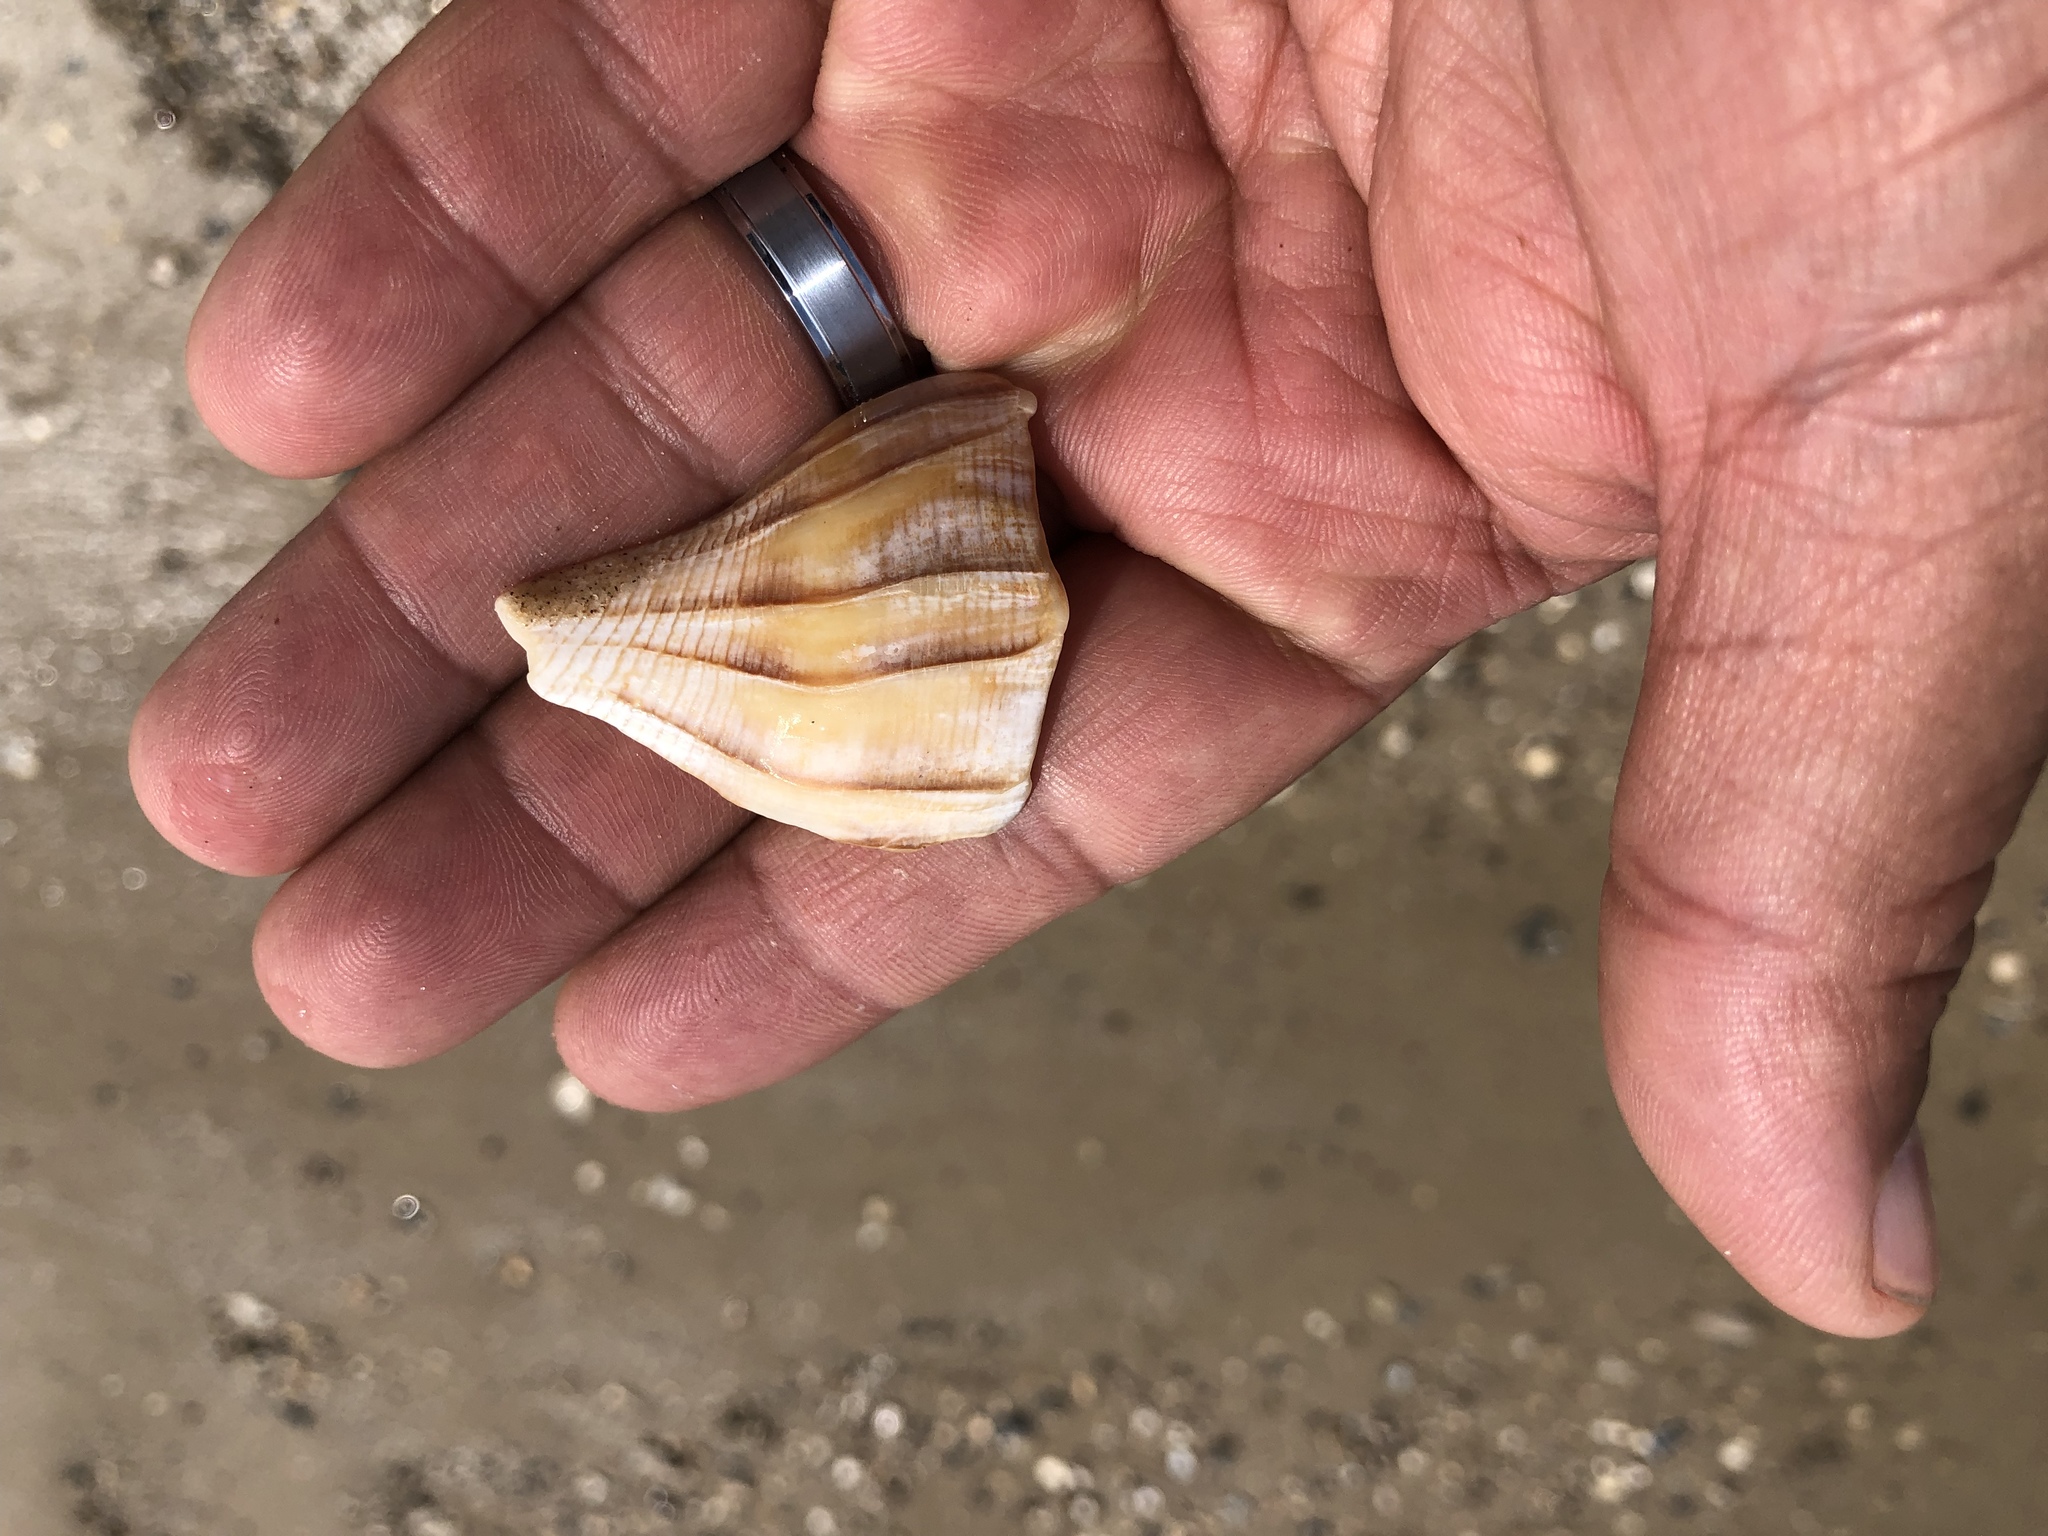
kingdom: Animalia
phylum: Mollusca
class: Gastropoda
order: Neogastropoda
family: Busyconidae
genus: Sinistrofulgur
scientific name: Sinistrofulgur pulleyi
